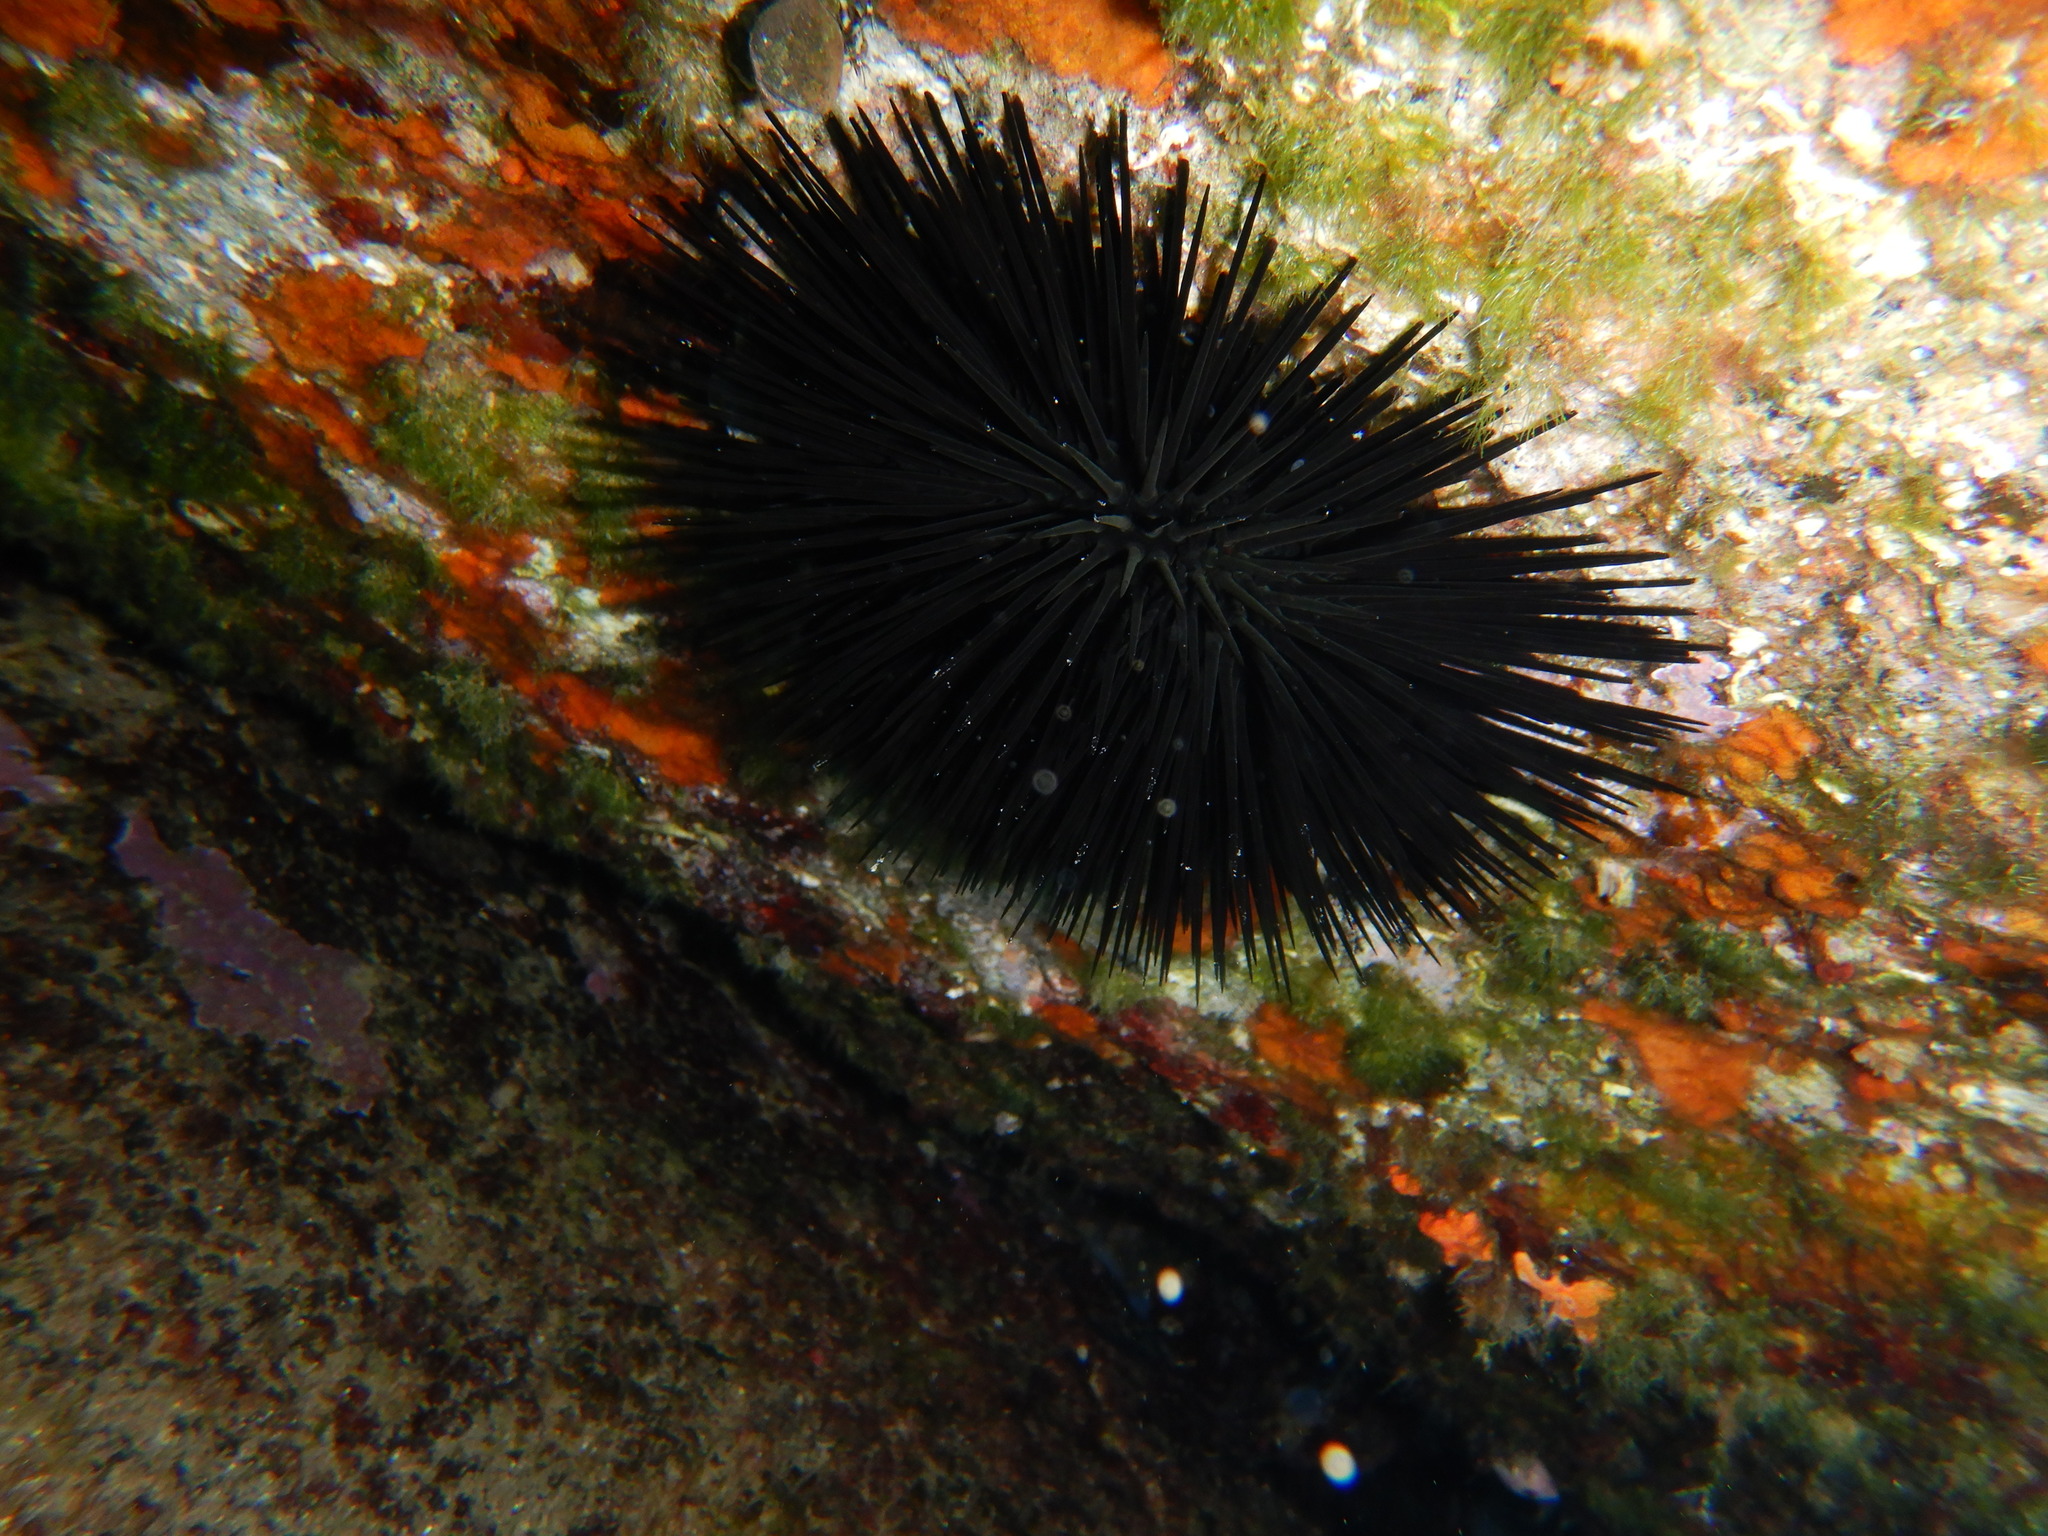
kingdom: Animalia
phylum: Echinodermata
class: Echinoidea
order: Arbacioida
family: Arbaciidae
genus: Arbacia
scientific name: Arbacia lixula
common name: Black sea urchin
